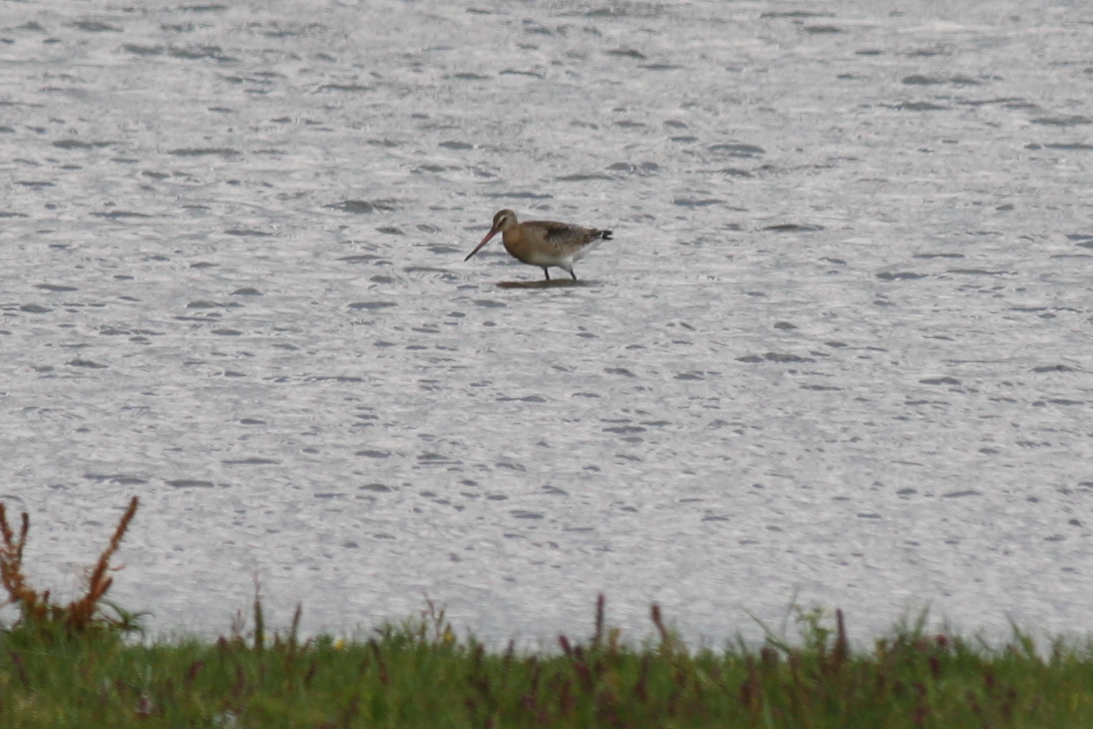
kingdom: Animalia
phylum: Chordata
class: Aves
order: Charadriiformes
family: Scolopacidae
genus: Limosa
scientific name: Limosa limosa
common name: Black-tailed godwit
